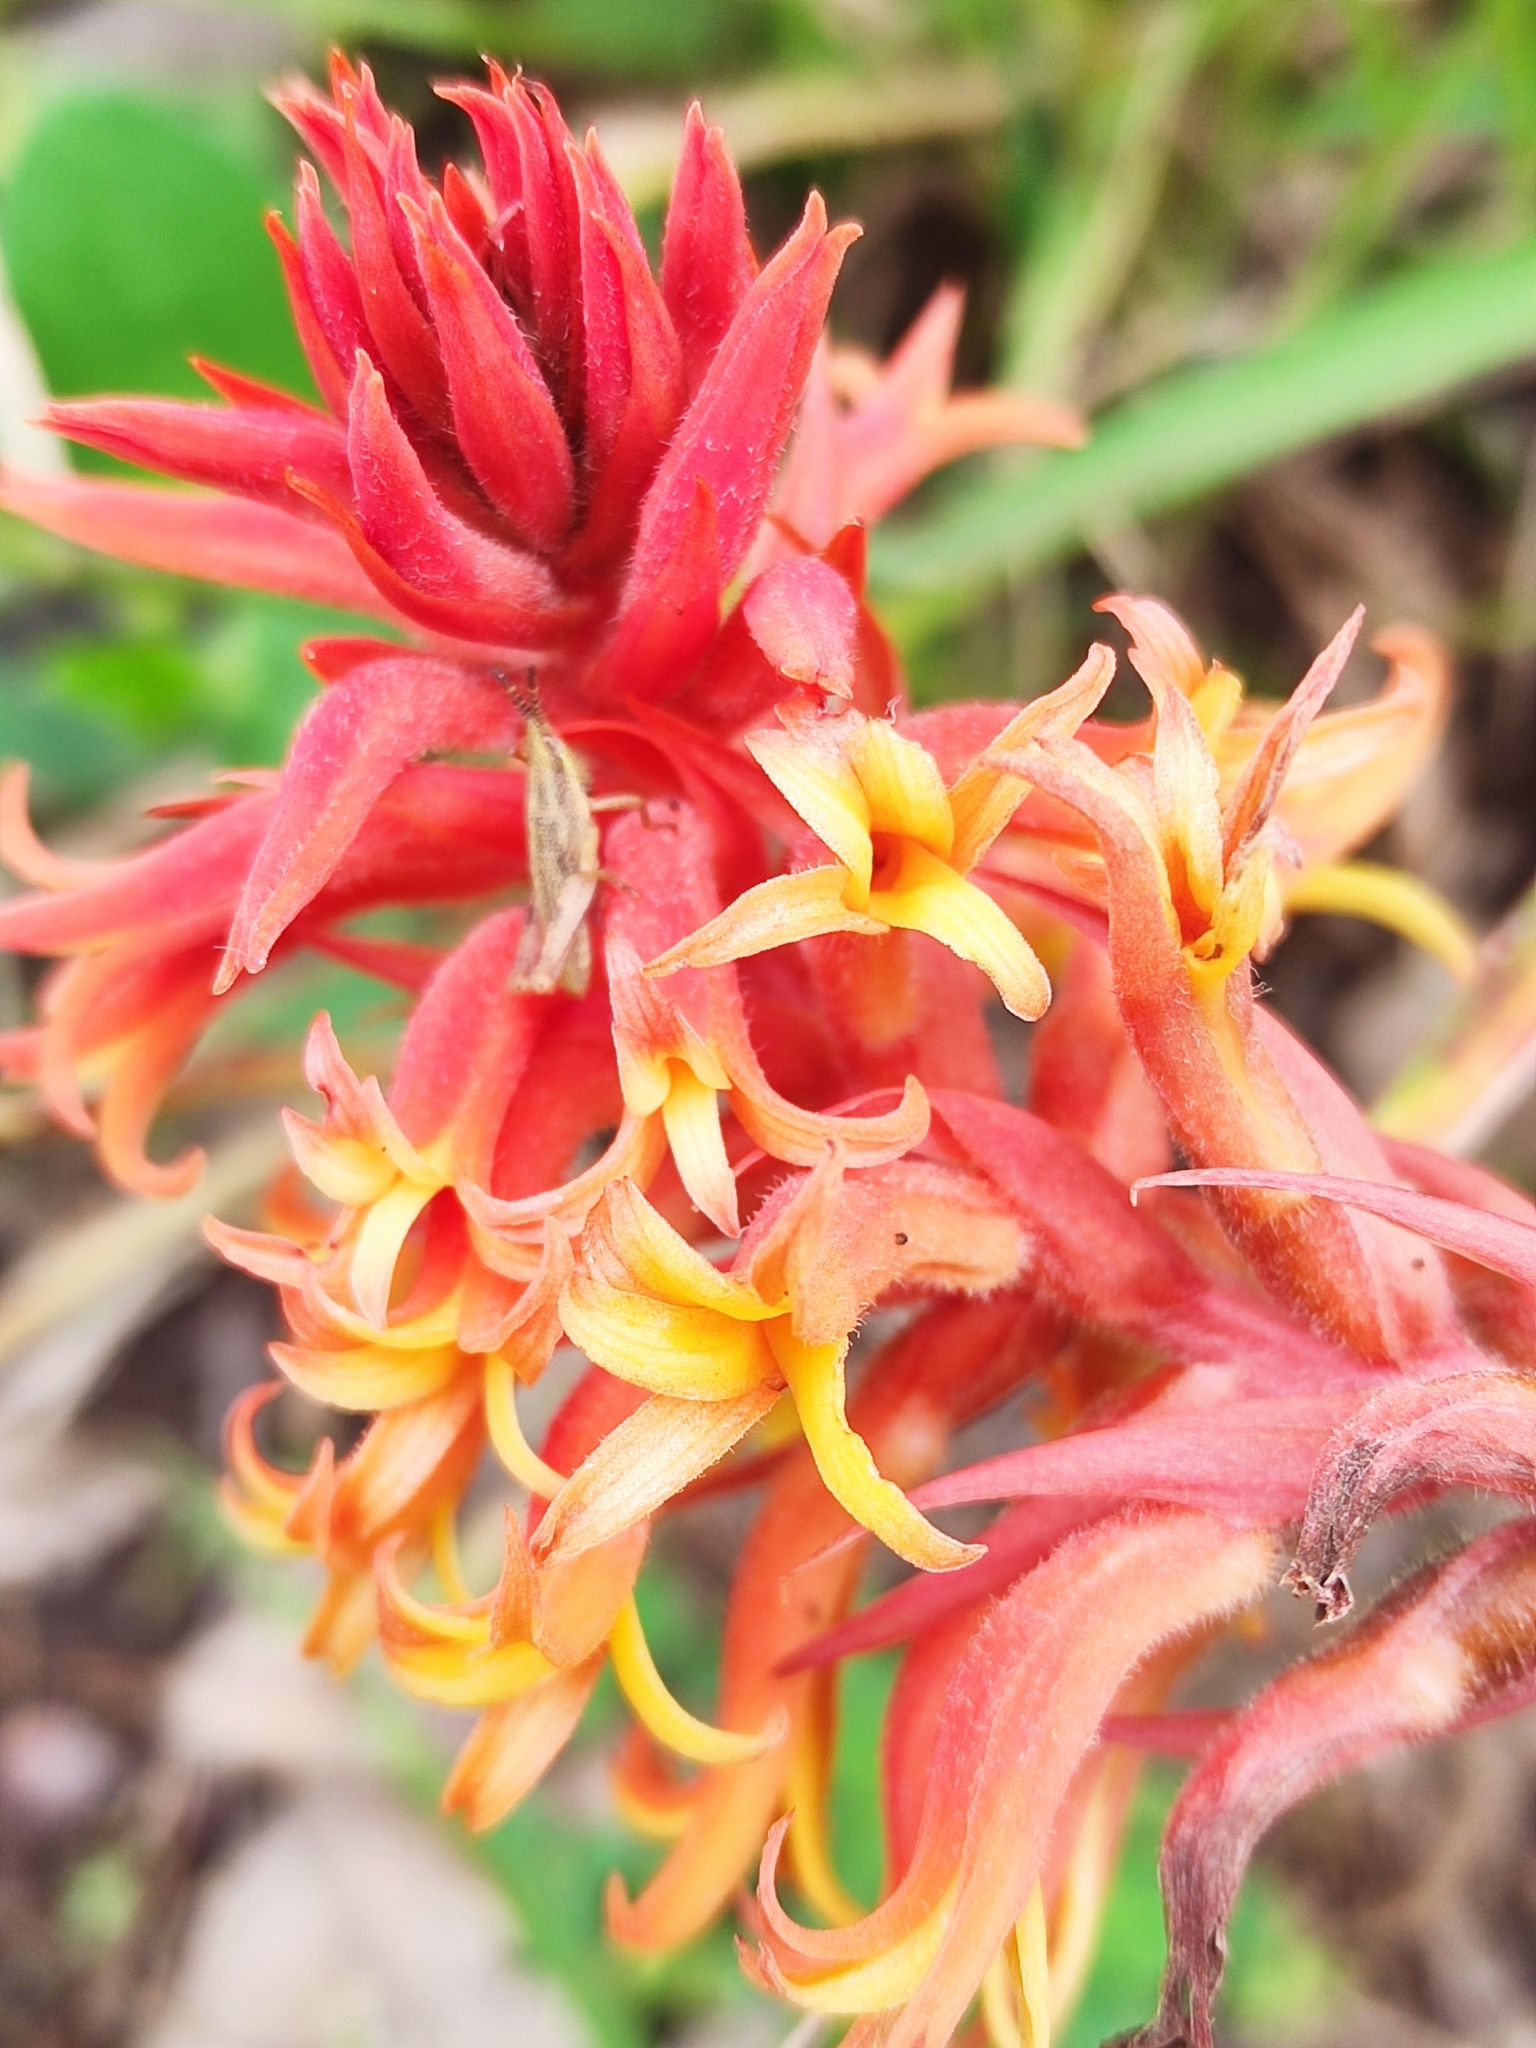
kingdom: Plantae
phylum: Tracheophyta
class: Liliopsida
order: Asparagales
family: Orchidaceae
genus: Dichromanthus
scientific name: Dichromanthus cinnabarinus
